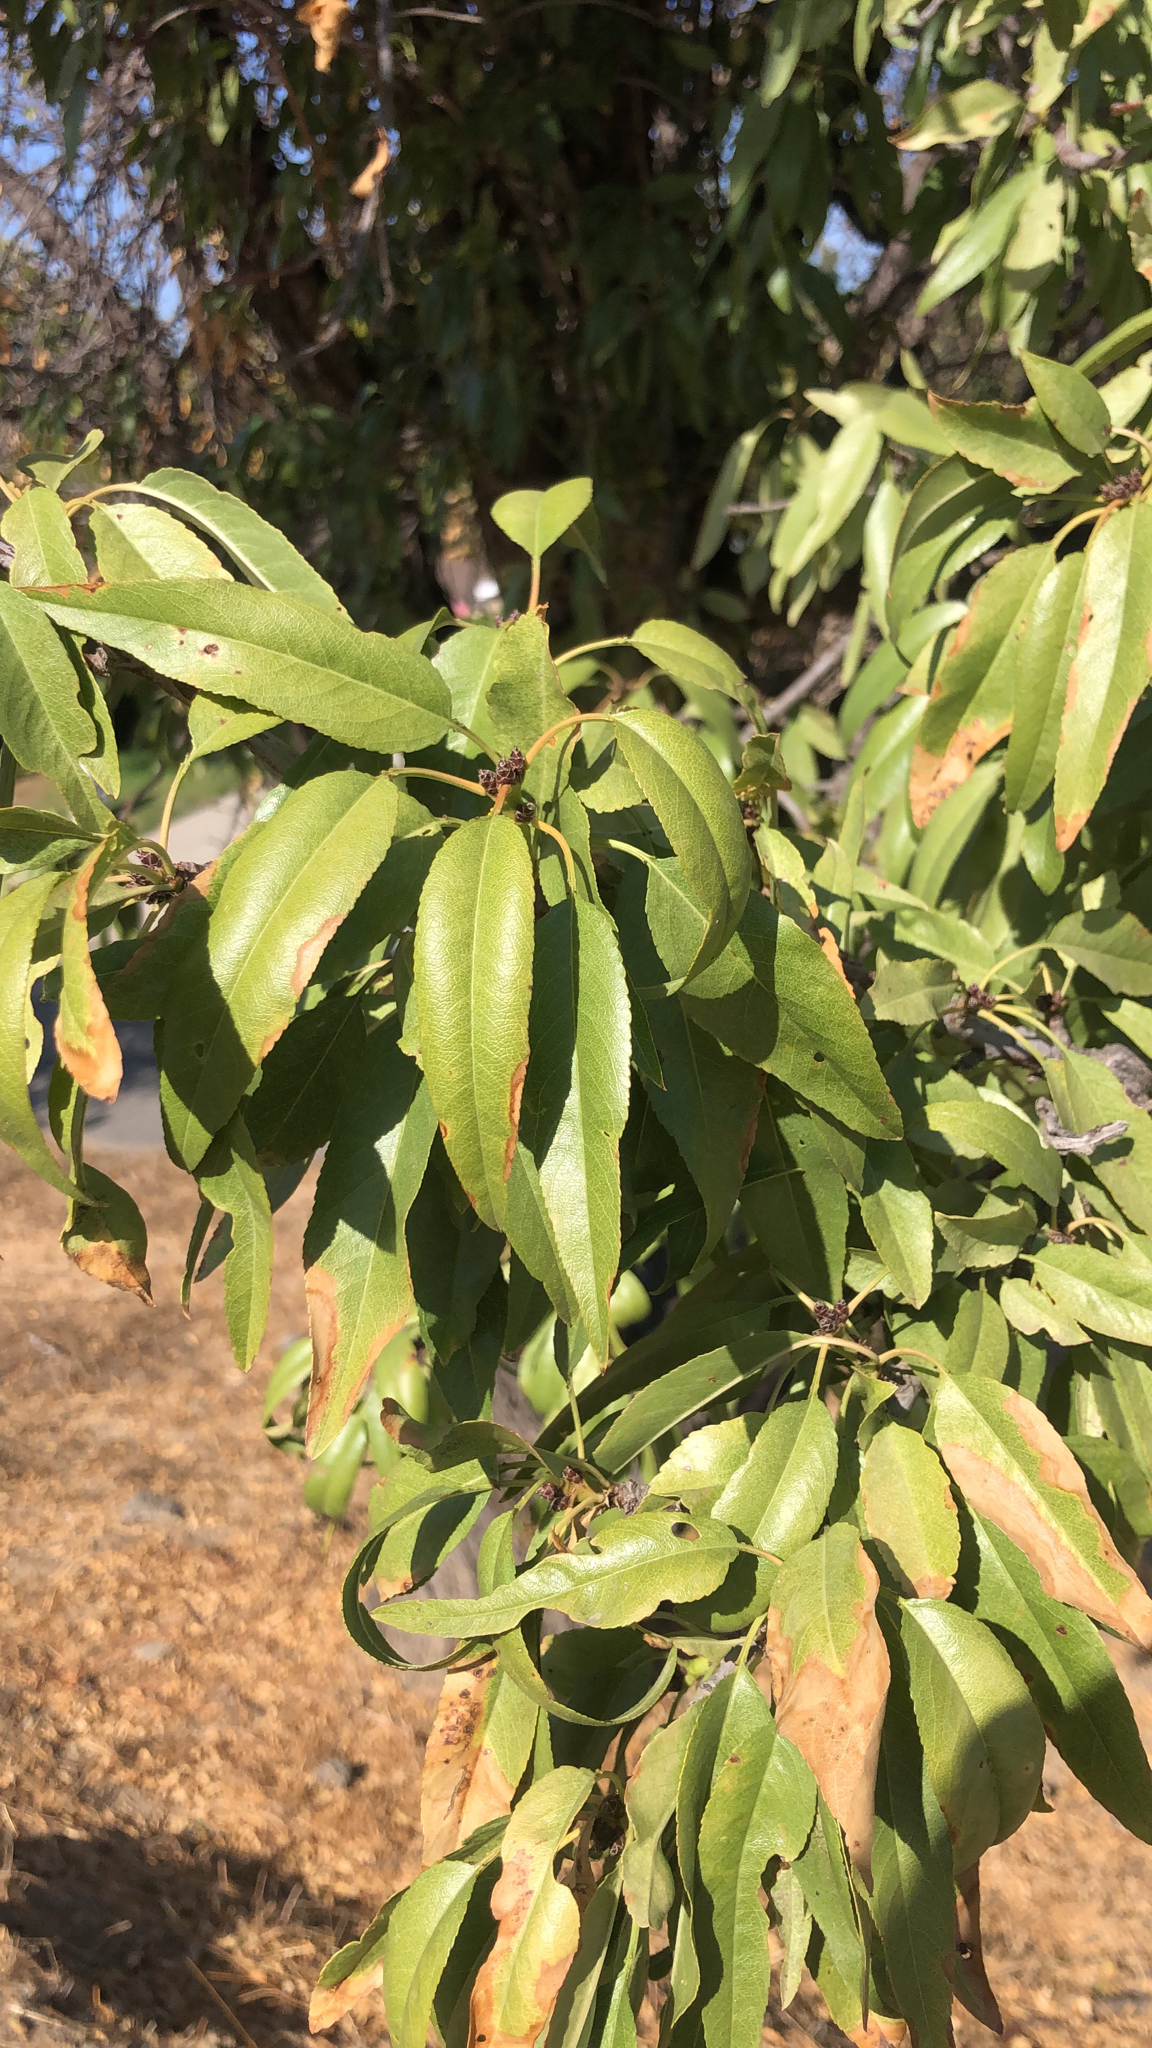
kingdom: Plantae
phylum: Tracheophyta
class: Magnoliopsida
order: Rosales
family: Rosaceae
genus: Prunus
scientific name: Prunus amygdalus
